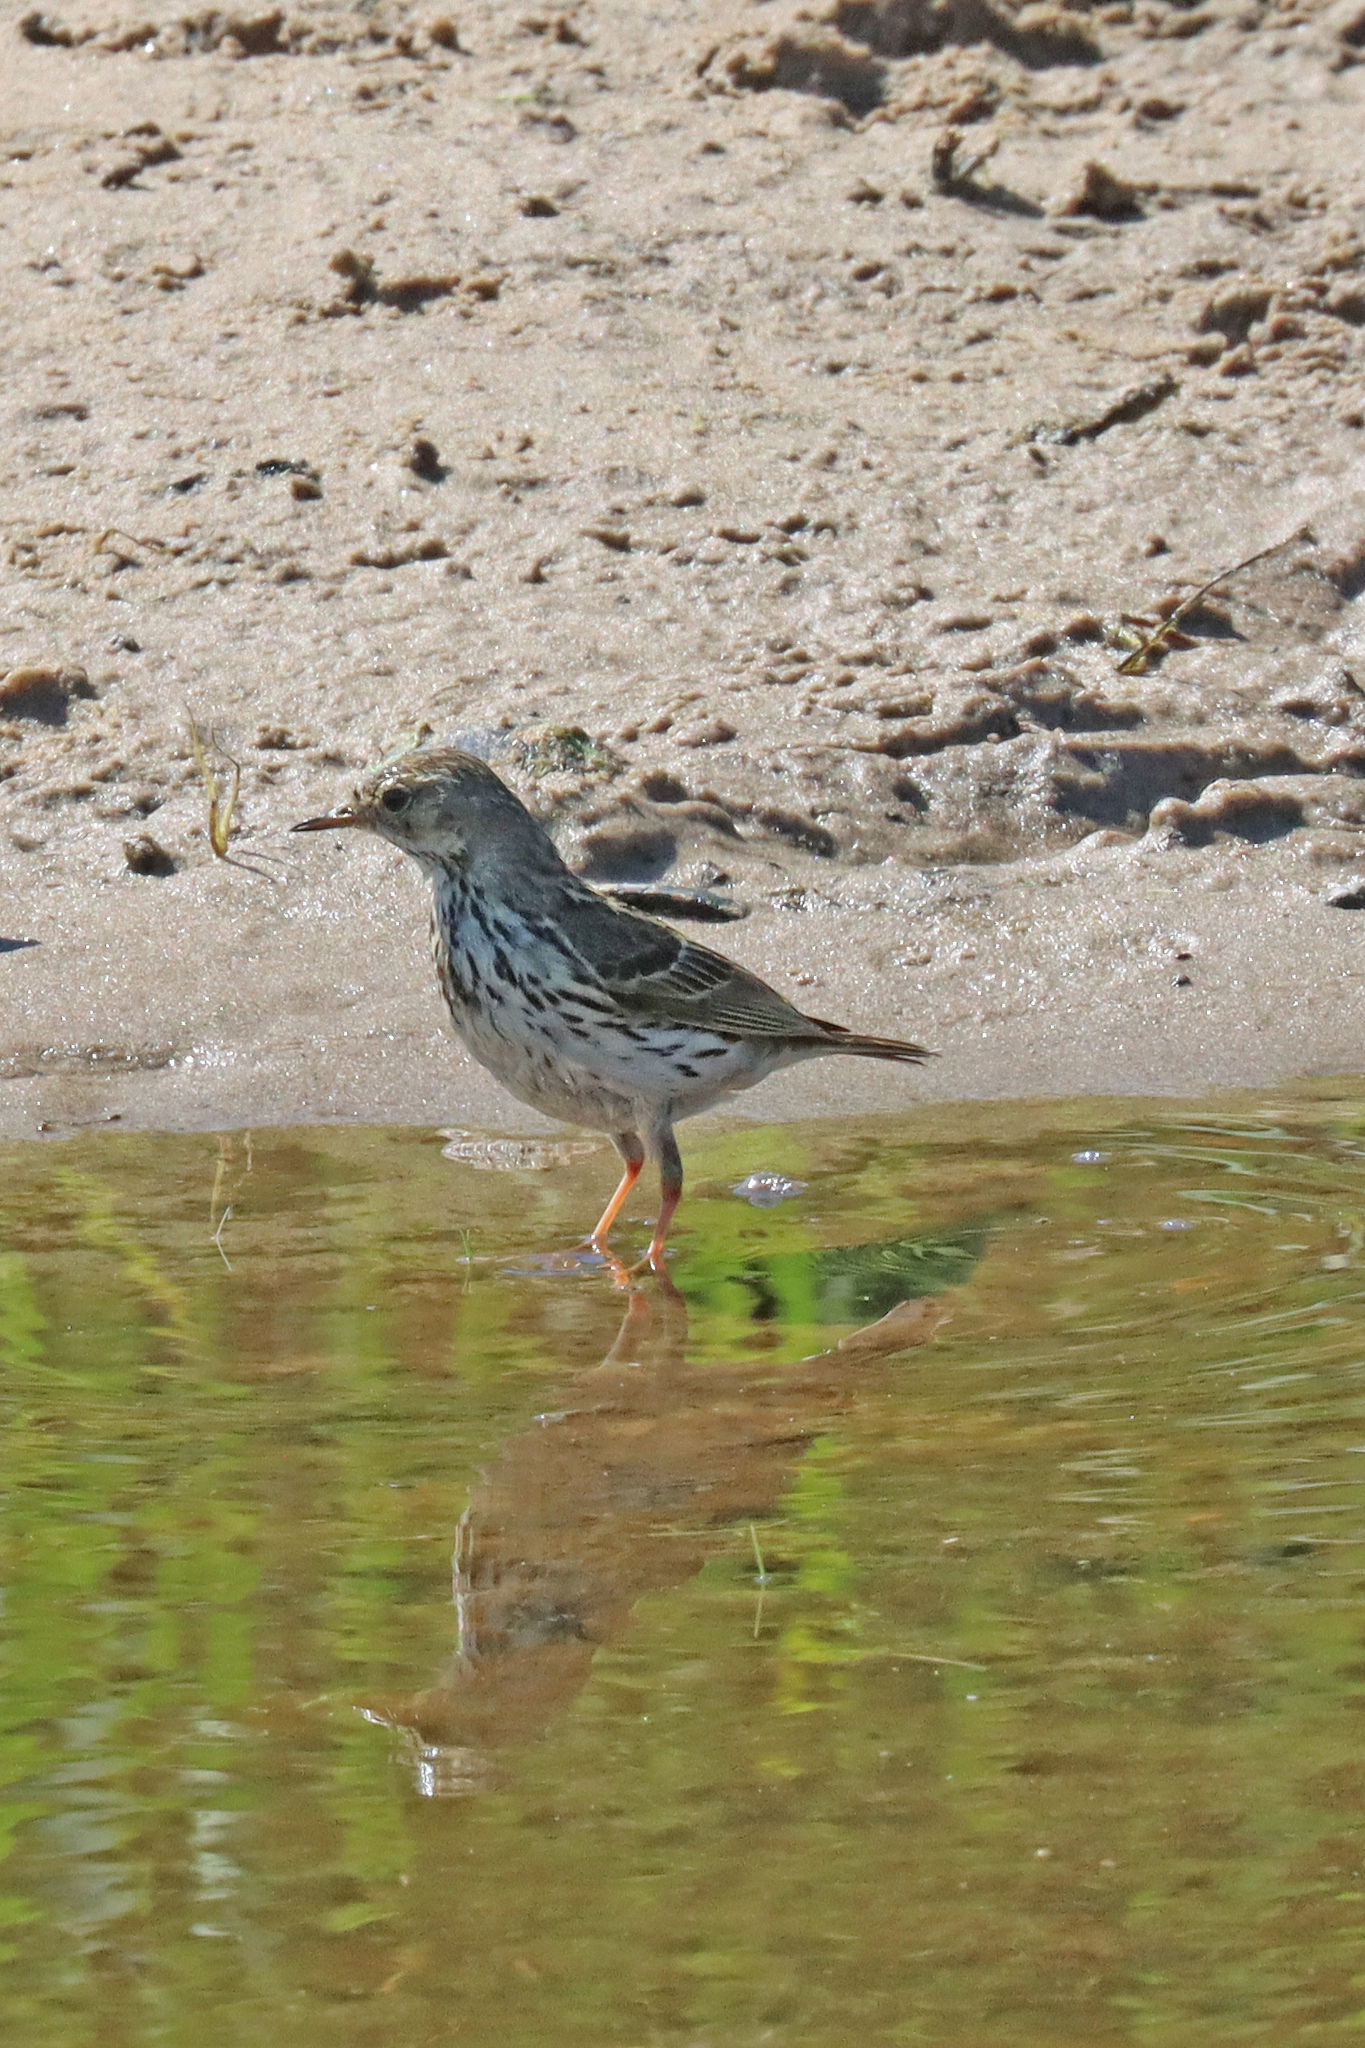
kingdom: Animalia
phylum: Chordata
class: Aves
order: Passeriformes
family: Motacillidae
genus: Anthus
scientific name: Anthus pratensis
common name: Meadow pipit
